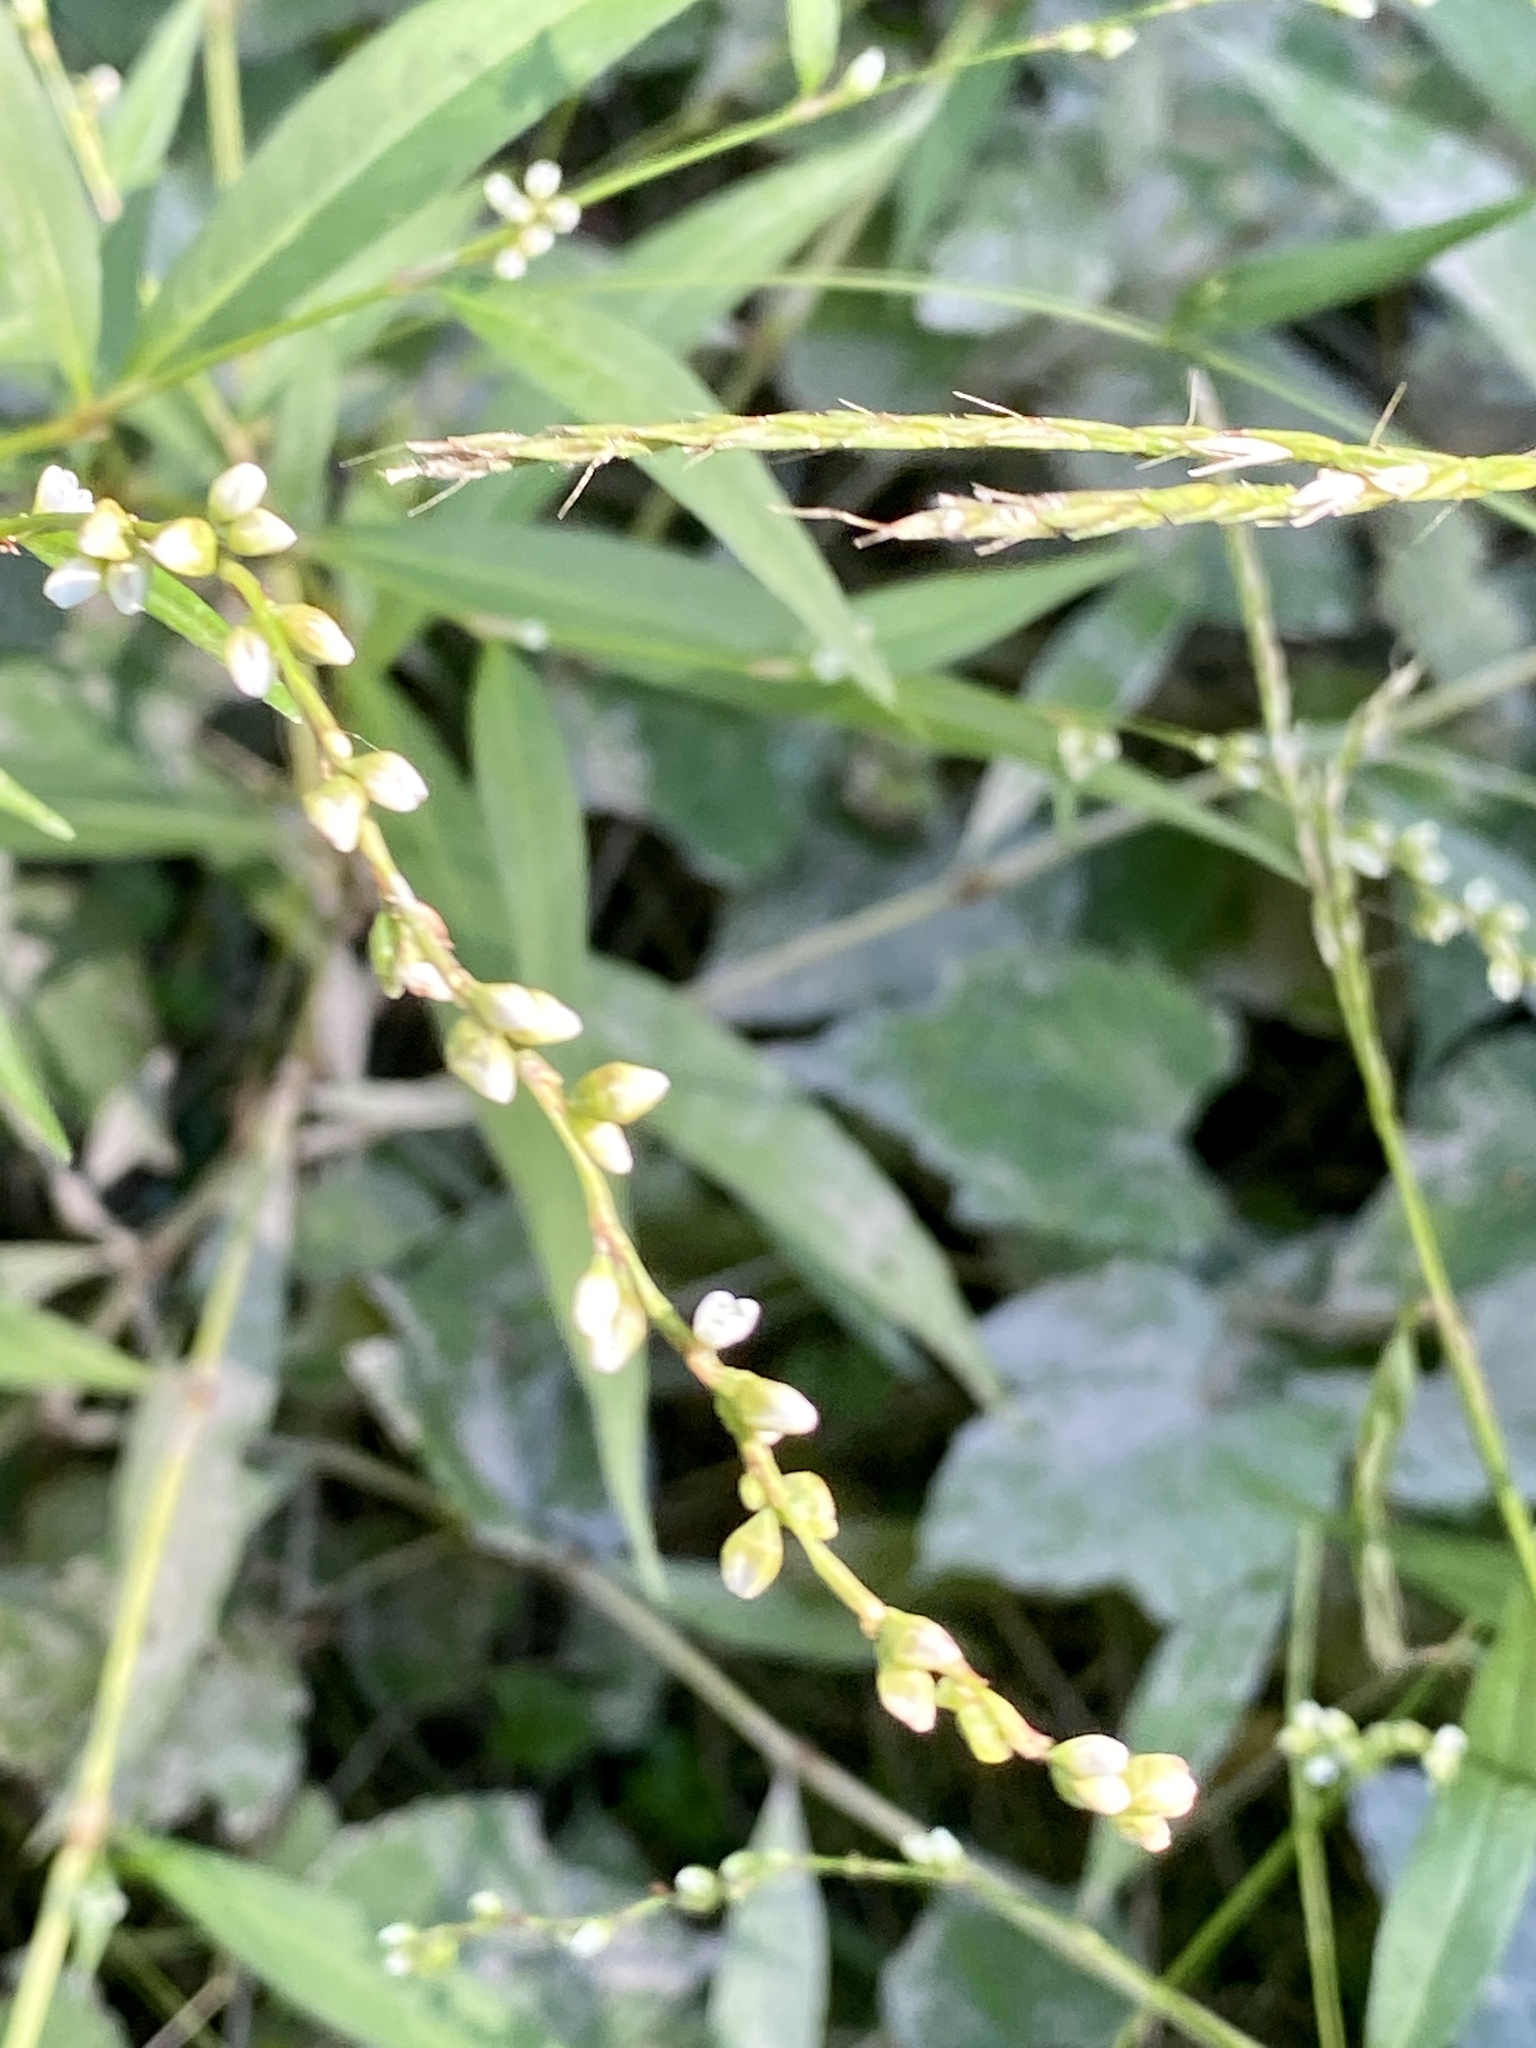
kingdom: Plantae
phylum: Tracheophyta
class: Magnoliopsida
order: Caryophyllales
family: Polygonaceae
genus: Persicaria
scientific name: Persicaria punctata
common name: Dotted smartweed
